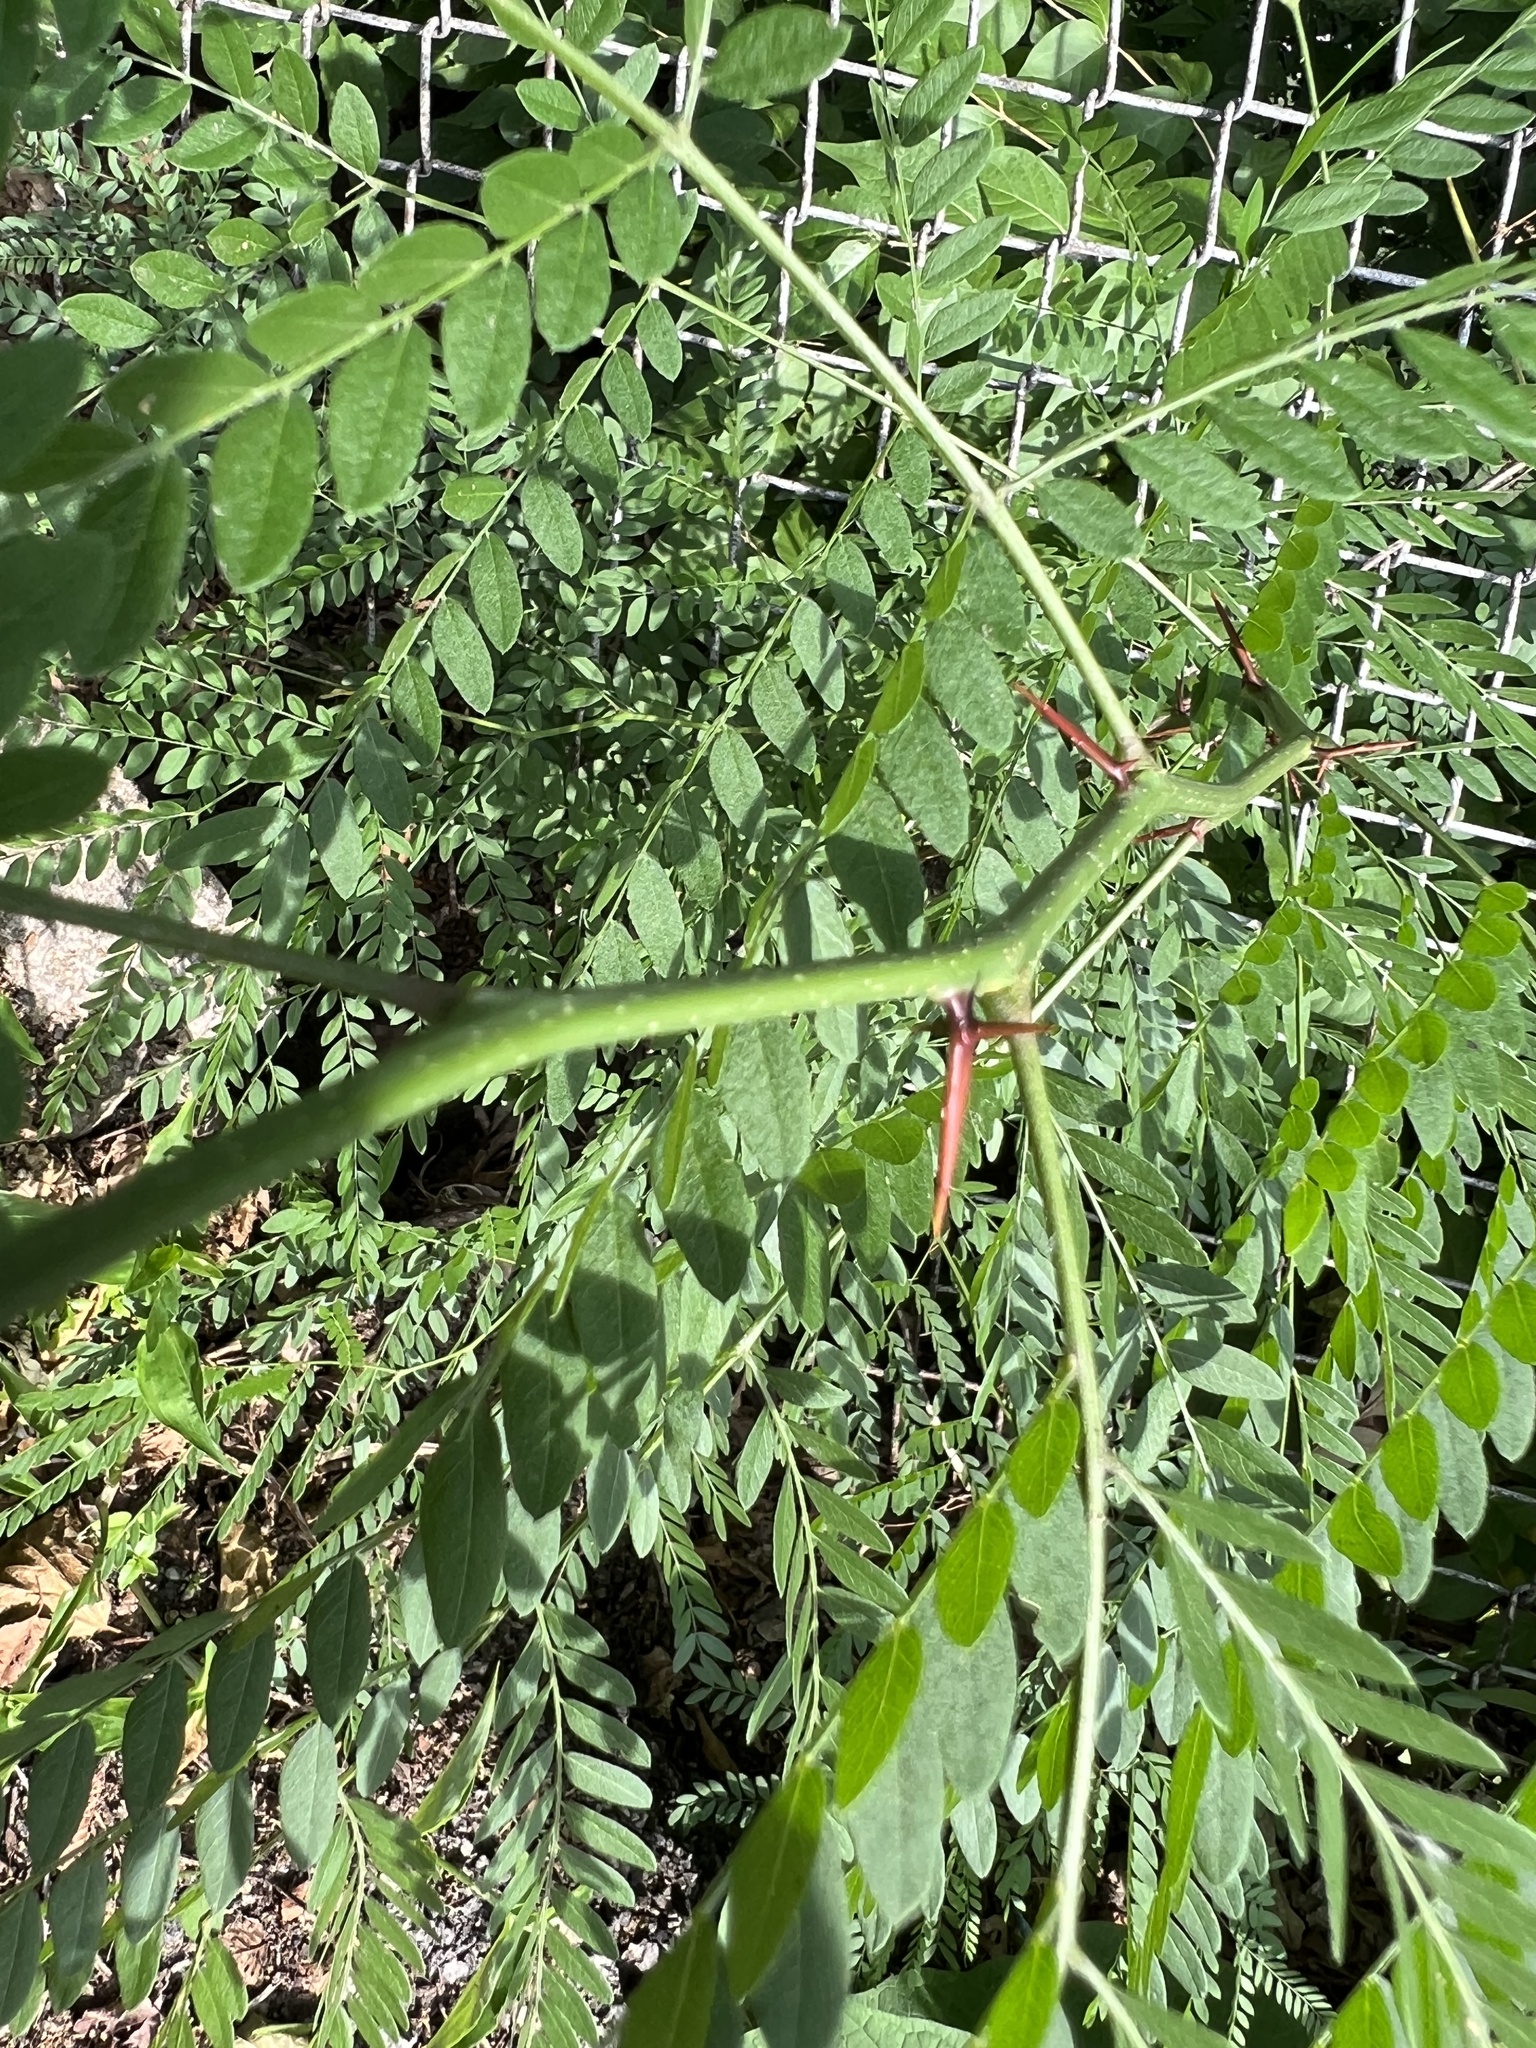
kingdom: Plantae
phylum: Tracheophyta
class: Magnoliopsida
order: Fabales
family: Fabaceae
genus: Gleditsia
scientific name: Gleditsia triacanthos
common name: Common honeylocust
